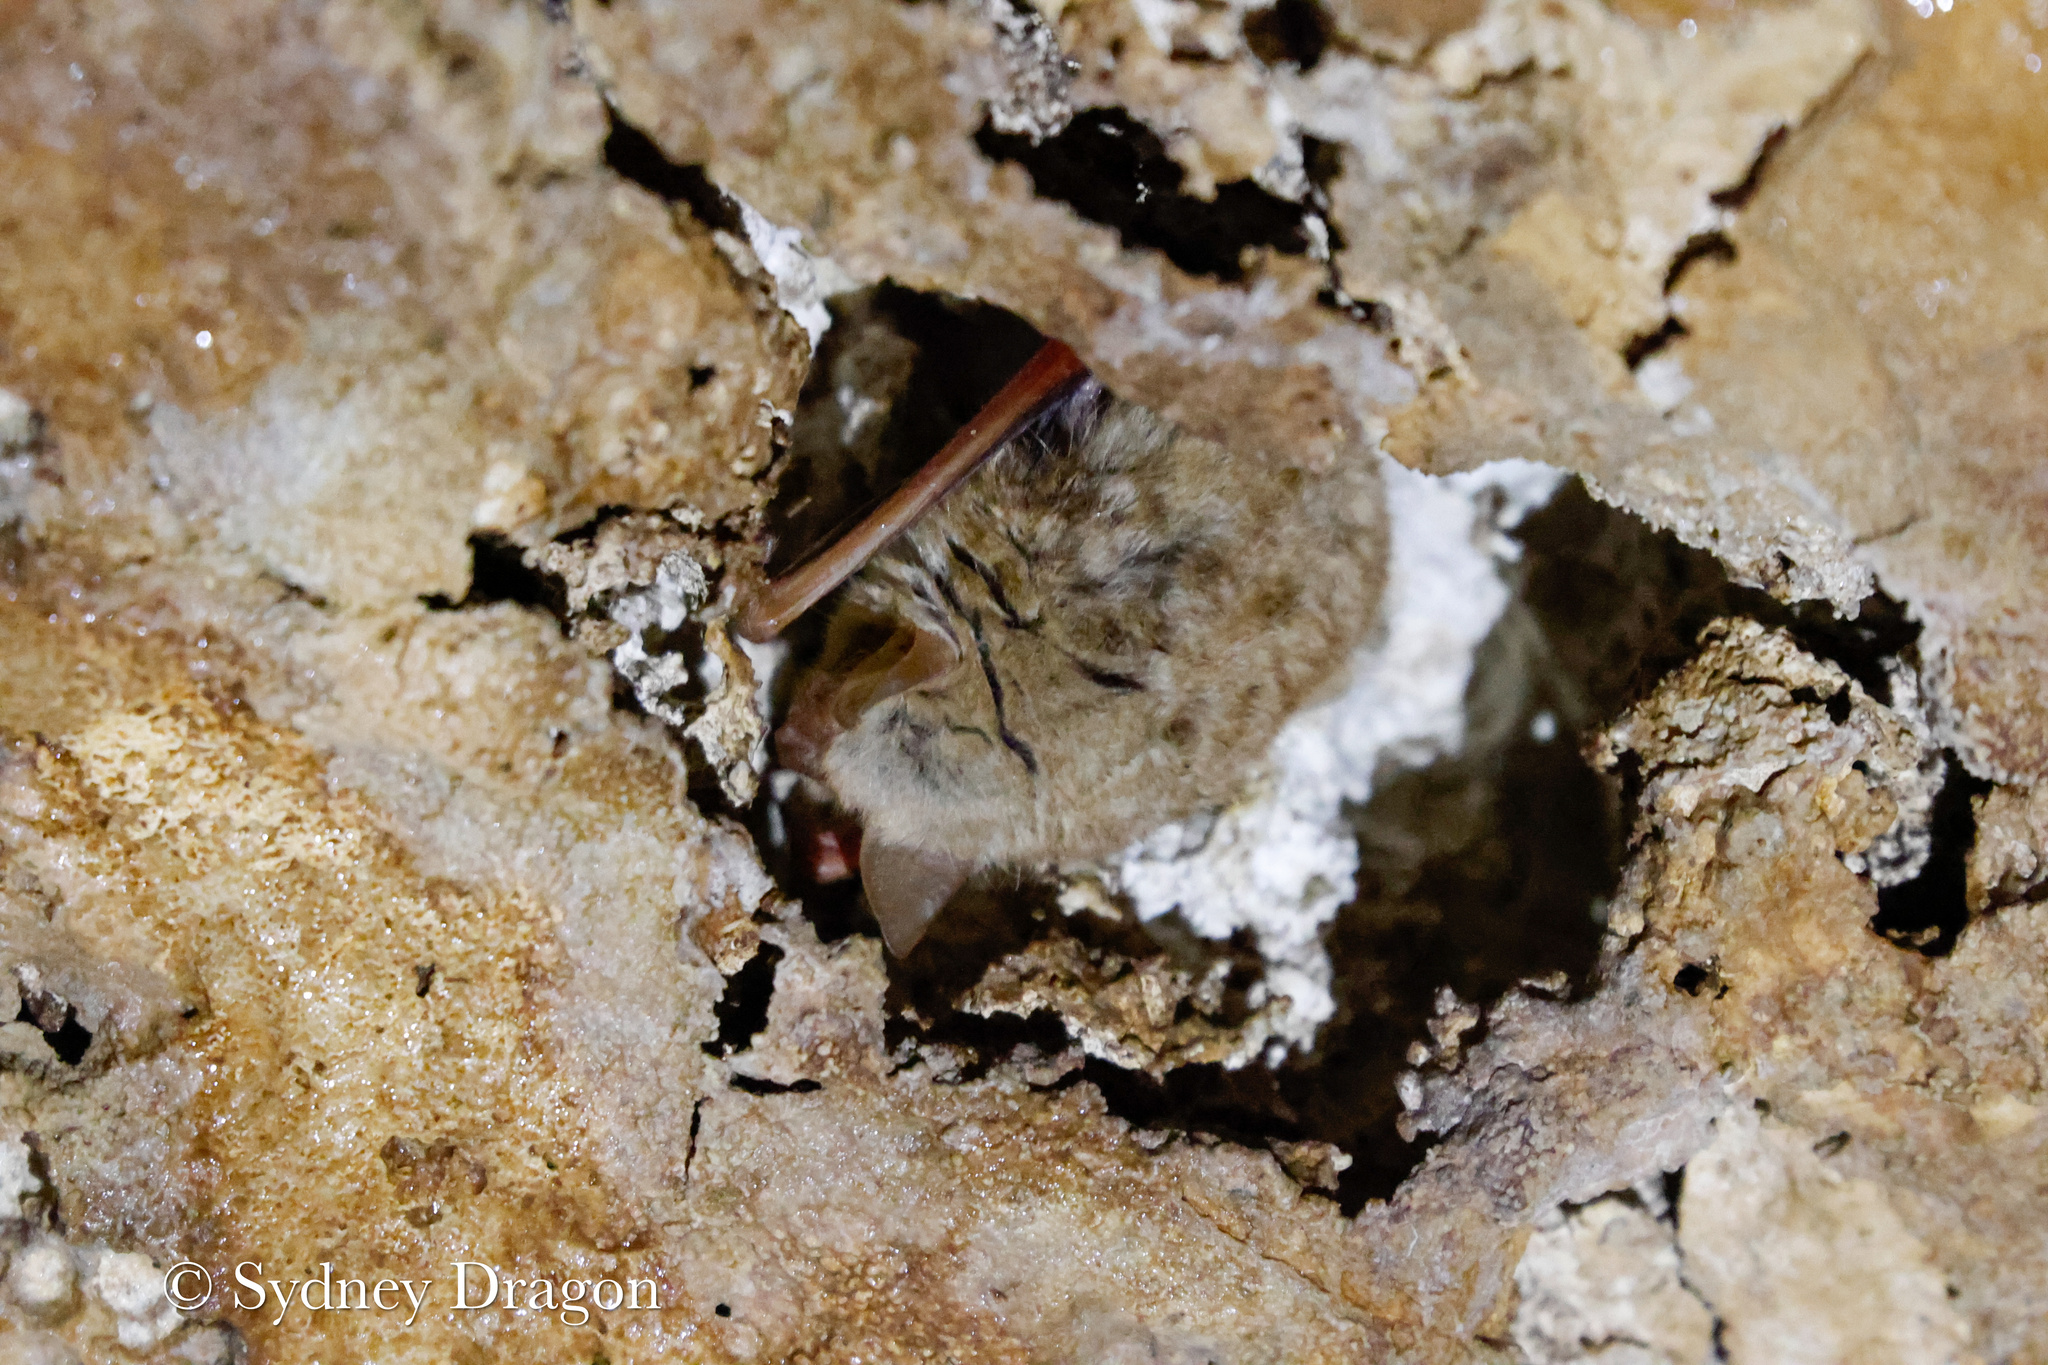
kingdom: Animalia
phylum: Chordata
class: Mammalia
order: Chiroptera
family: Vespertilionidae
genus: Perimyotis
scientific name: Perimyotis subflavus
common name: Eastern pipistrelle
